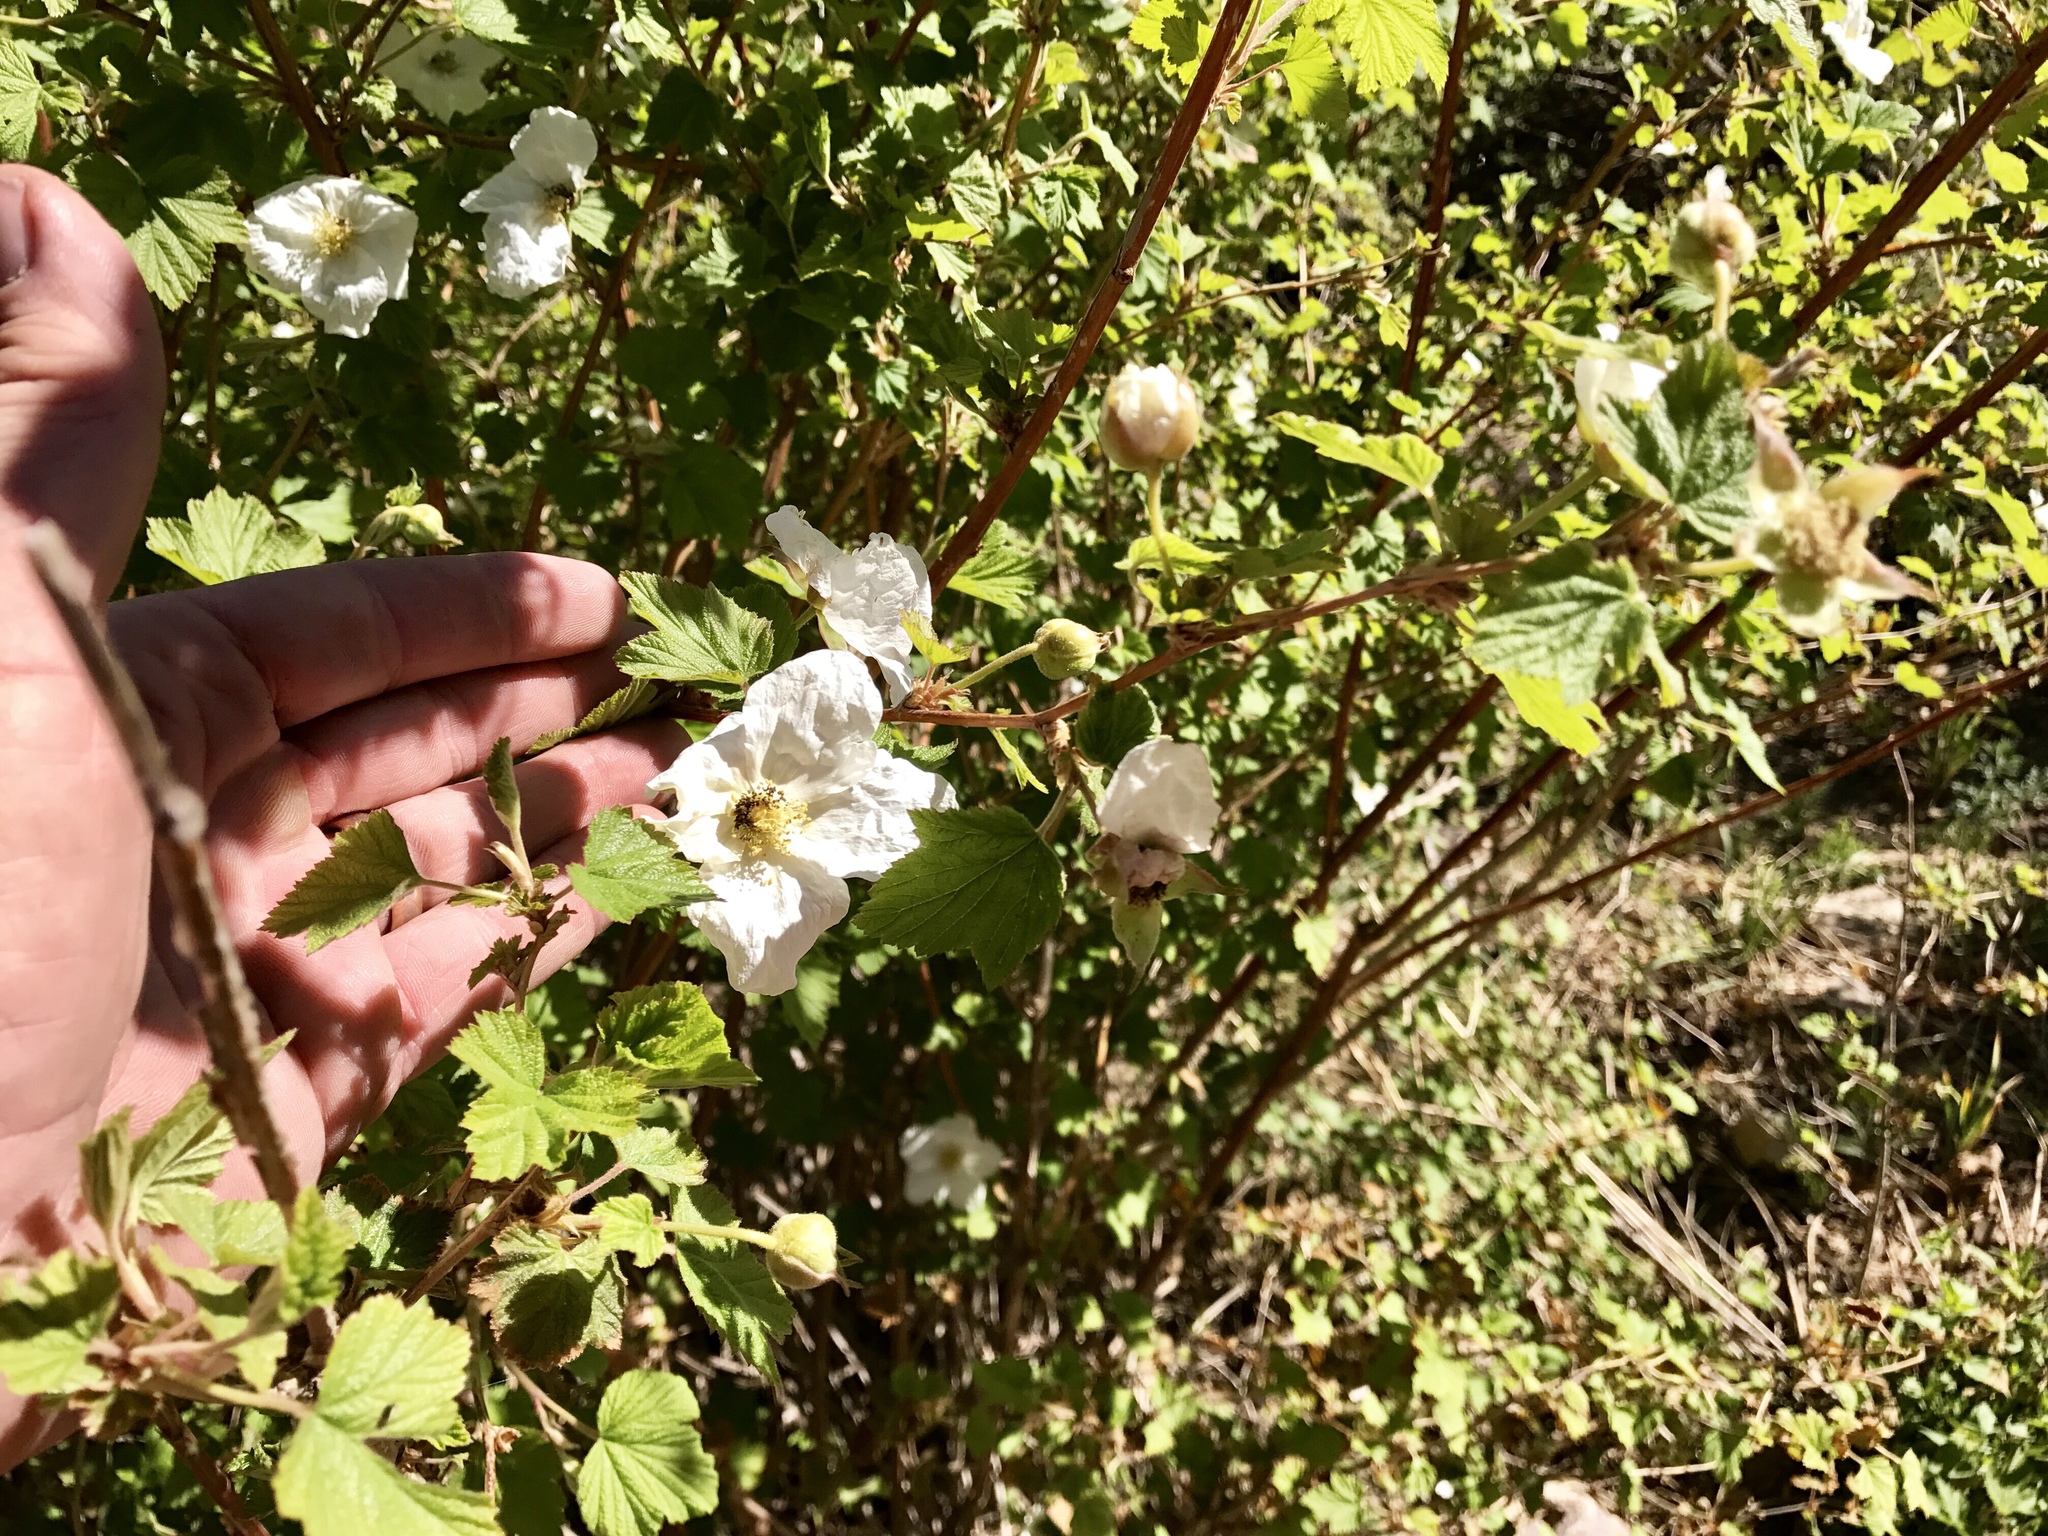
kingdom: Plantae
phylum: Tracheophyta
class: Magnoliopsida
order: Rosales
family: Rosaceae
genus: Rubus
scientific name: Rubus neomexicanus
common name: New mexico raspberry
